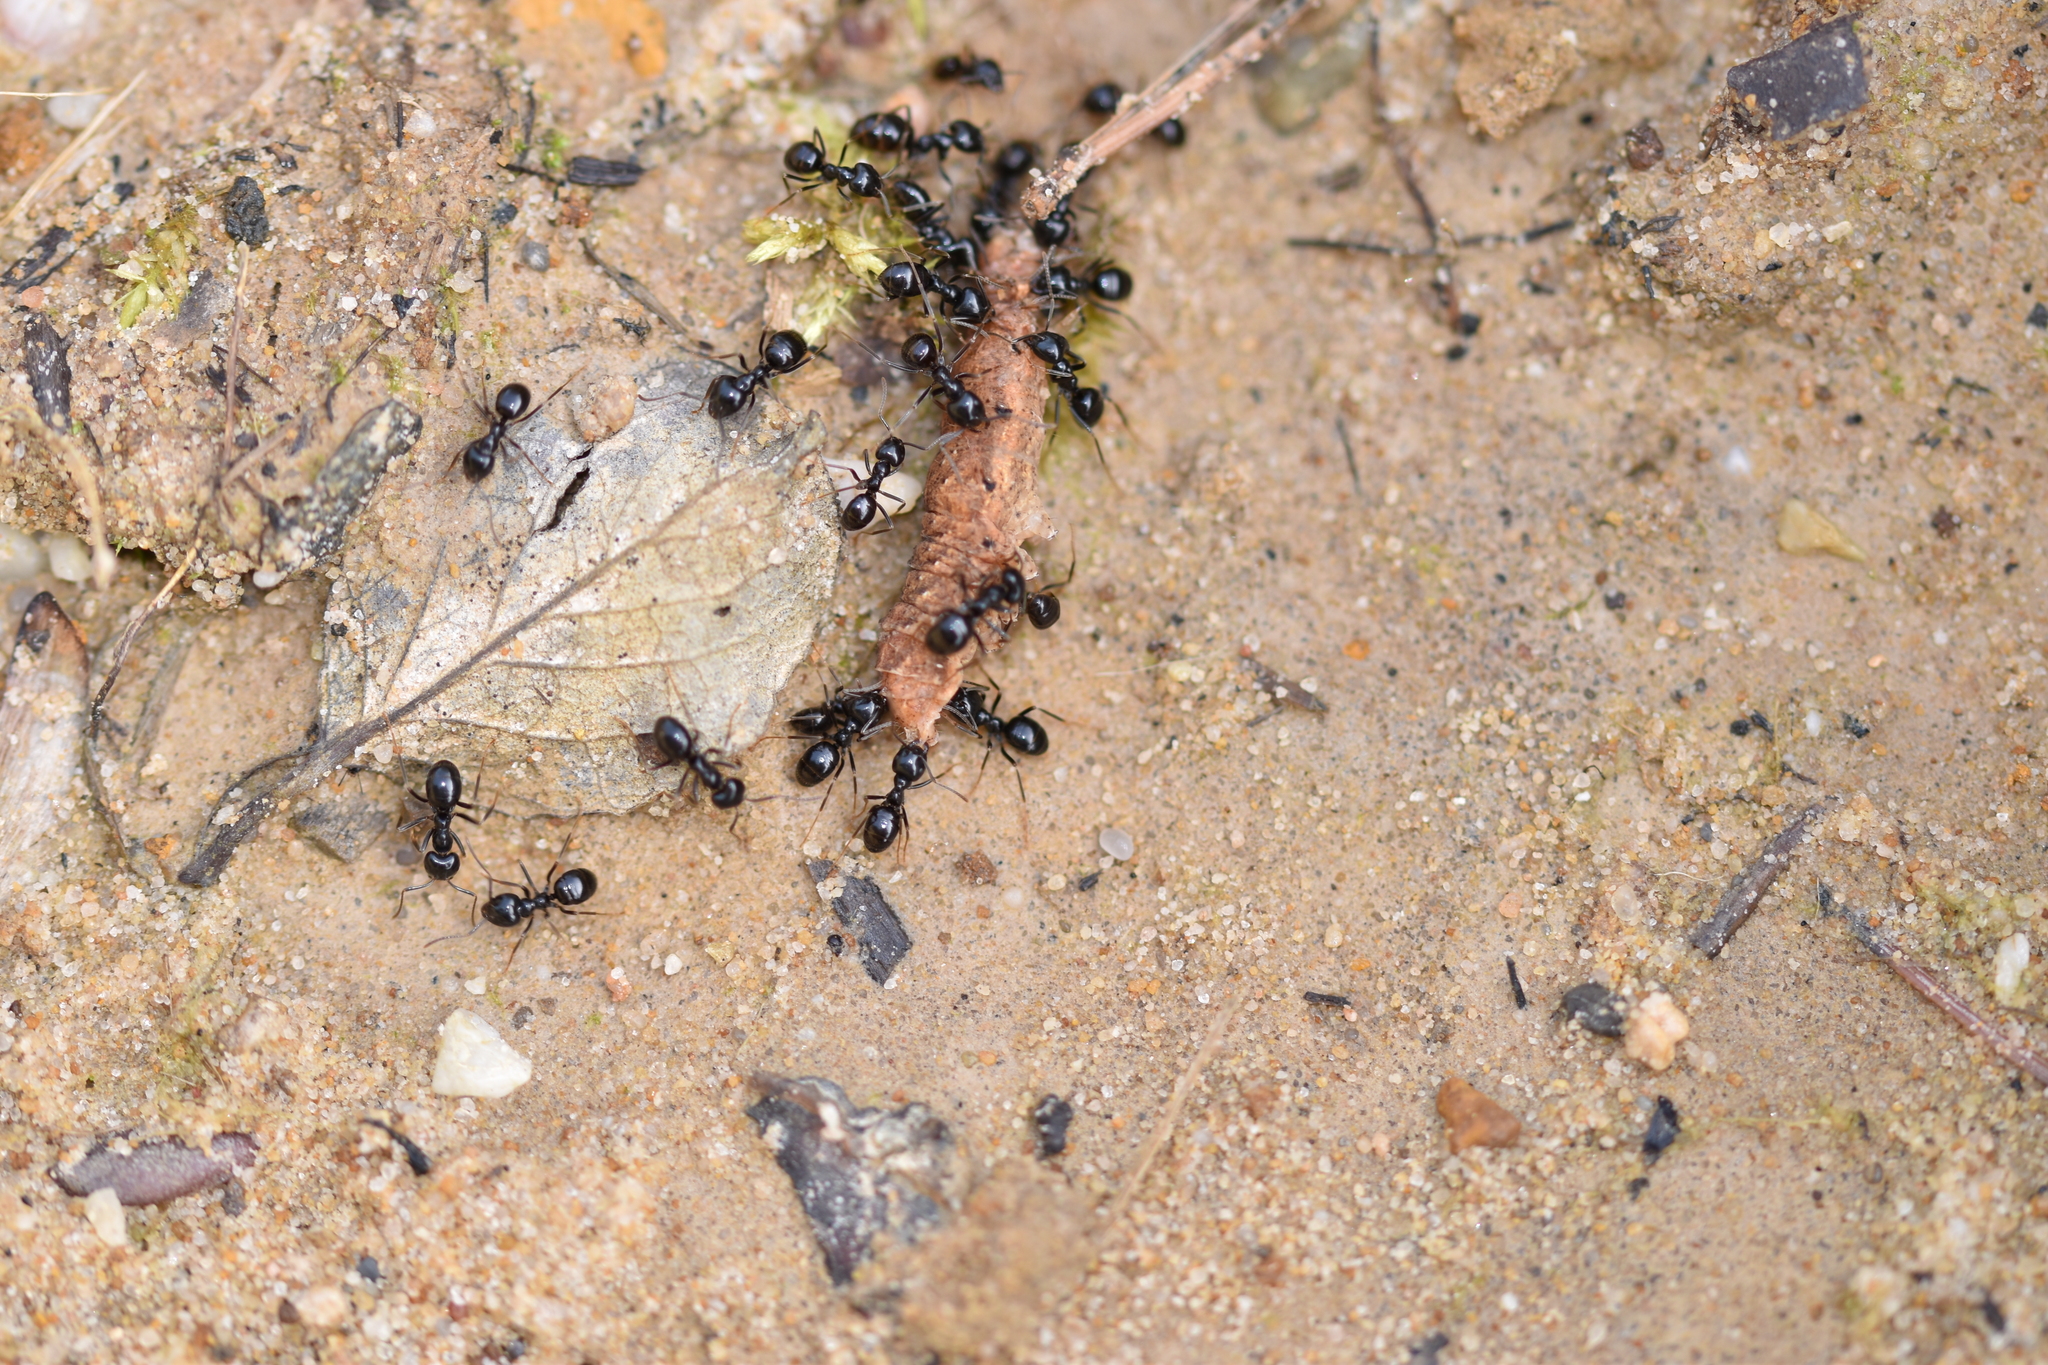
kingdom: Animalia
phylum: Arthropoda
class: Insecta
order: Hymenoptera
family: Formicidae
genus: Lasius
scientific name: Lasius fuliginosus
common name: Jet ant
